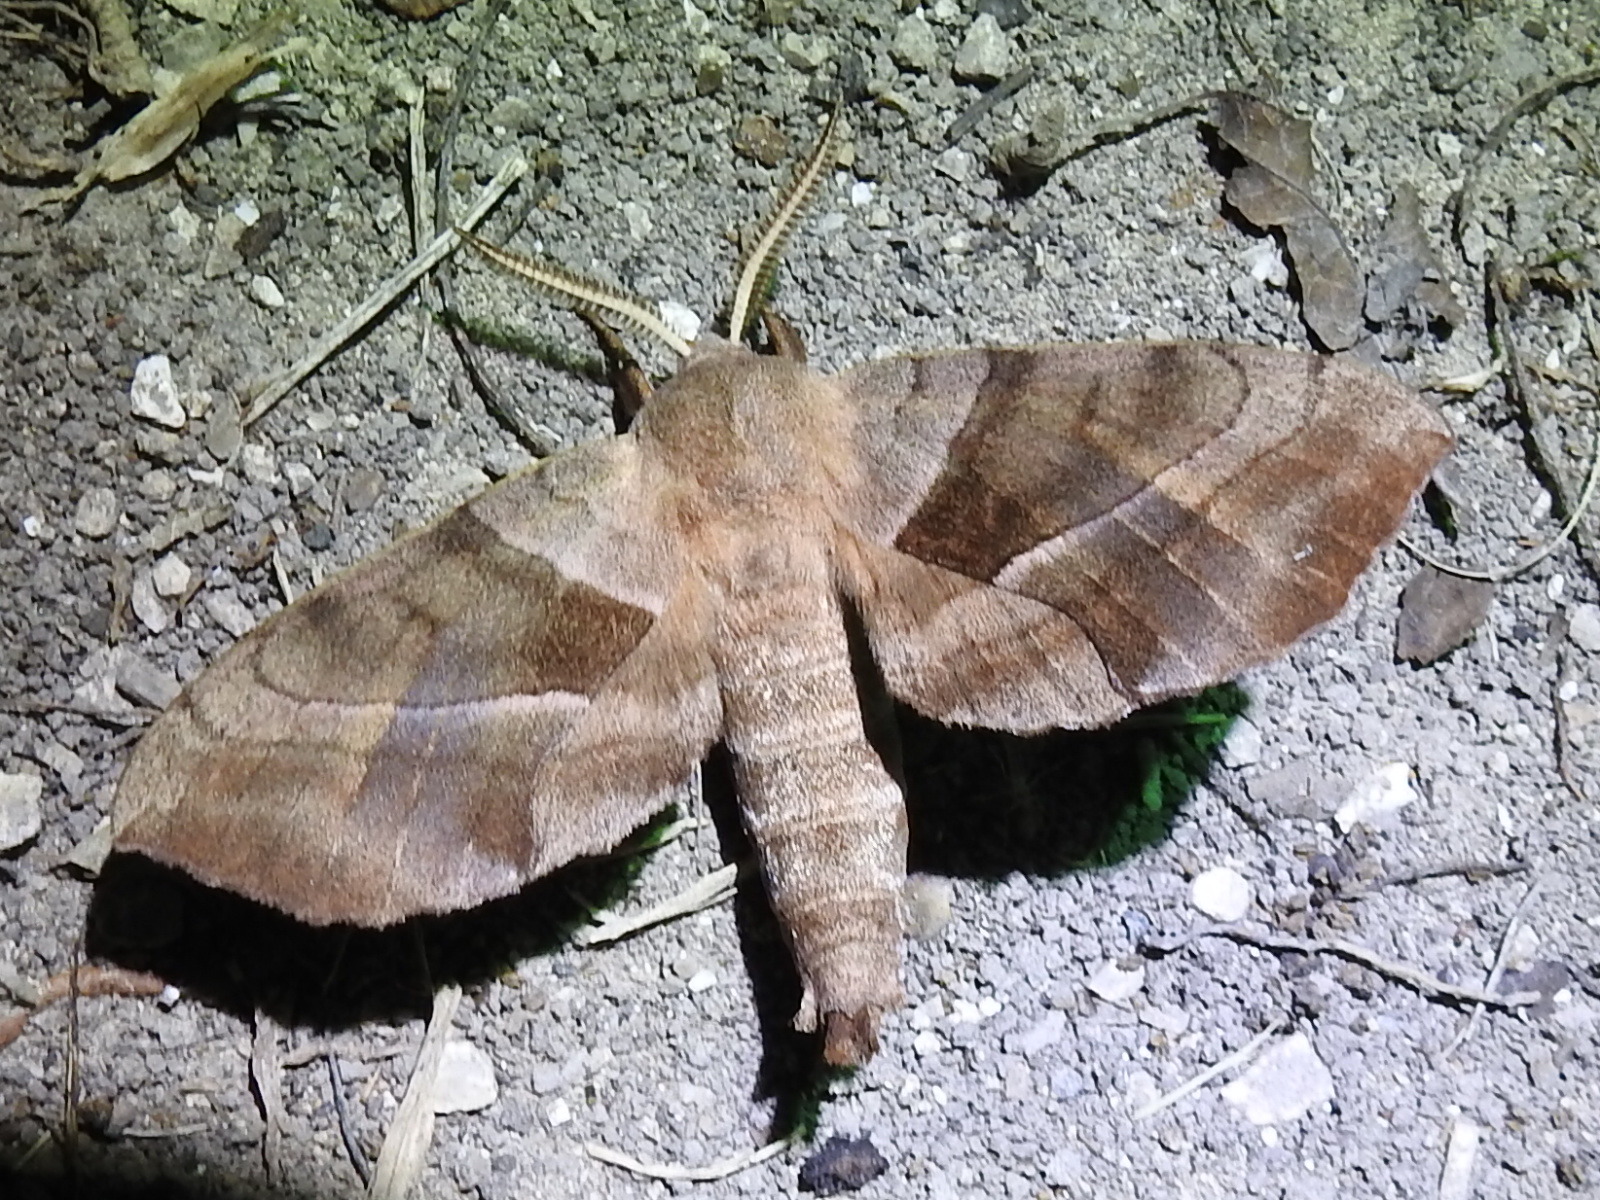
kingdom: Animalia
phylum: Arthropoda
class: Insecta
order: Lepidoptera
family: Sphingidae
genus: Amorpha
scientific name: Amorpha juglandis
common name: Walnut sphinx
